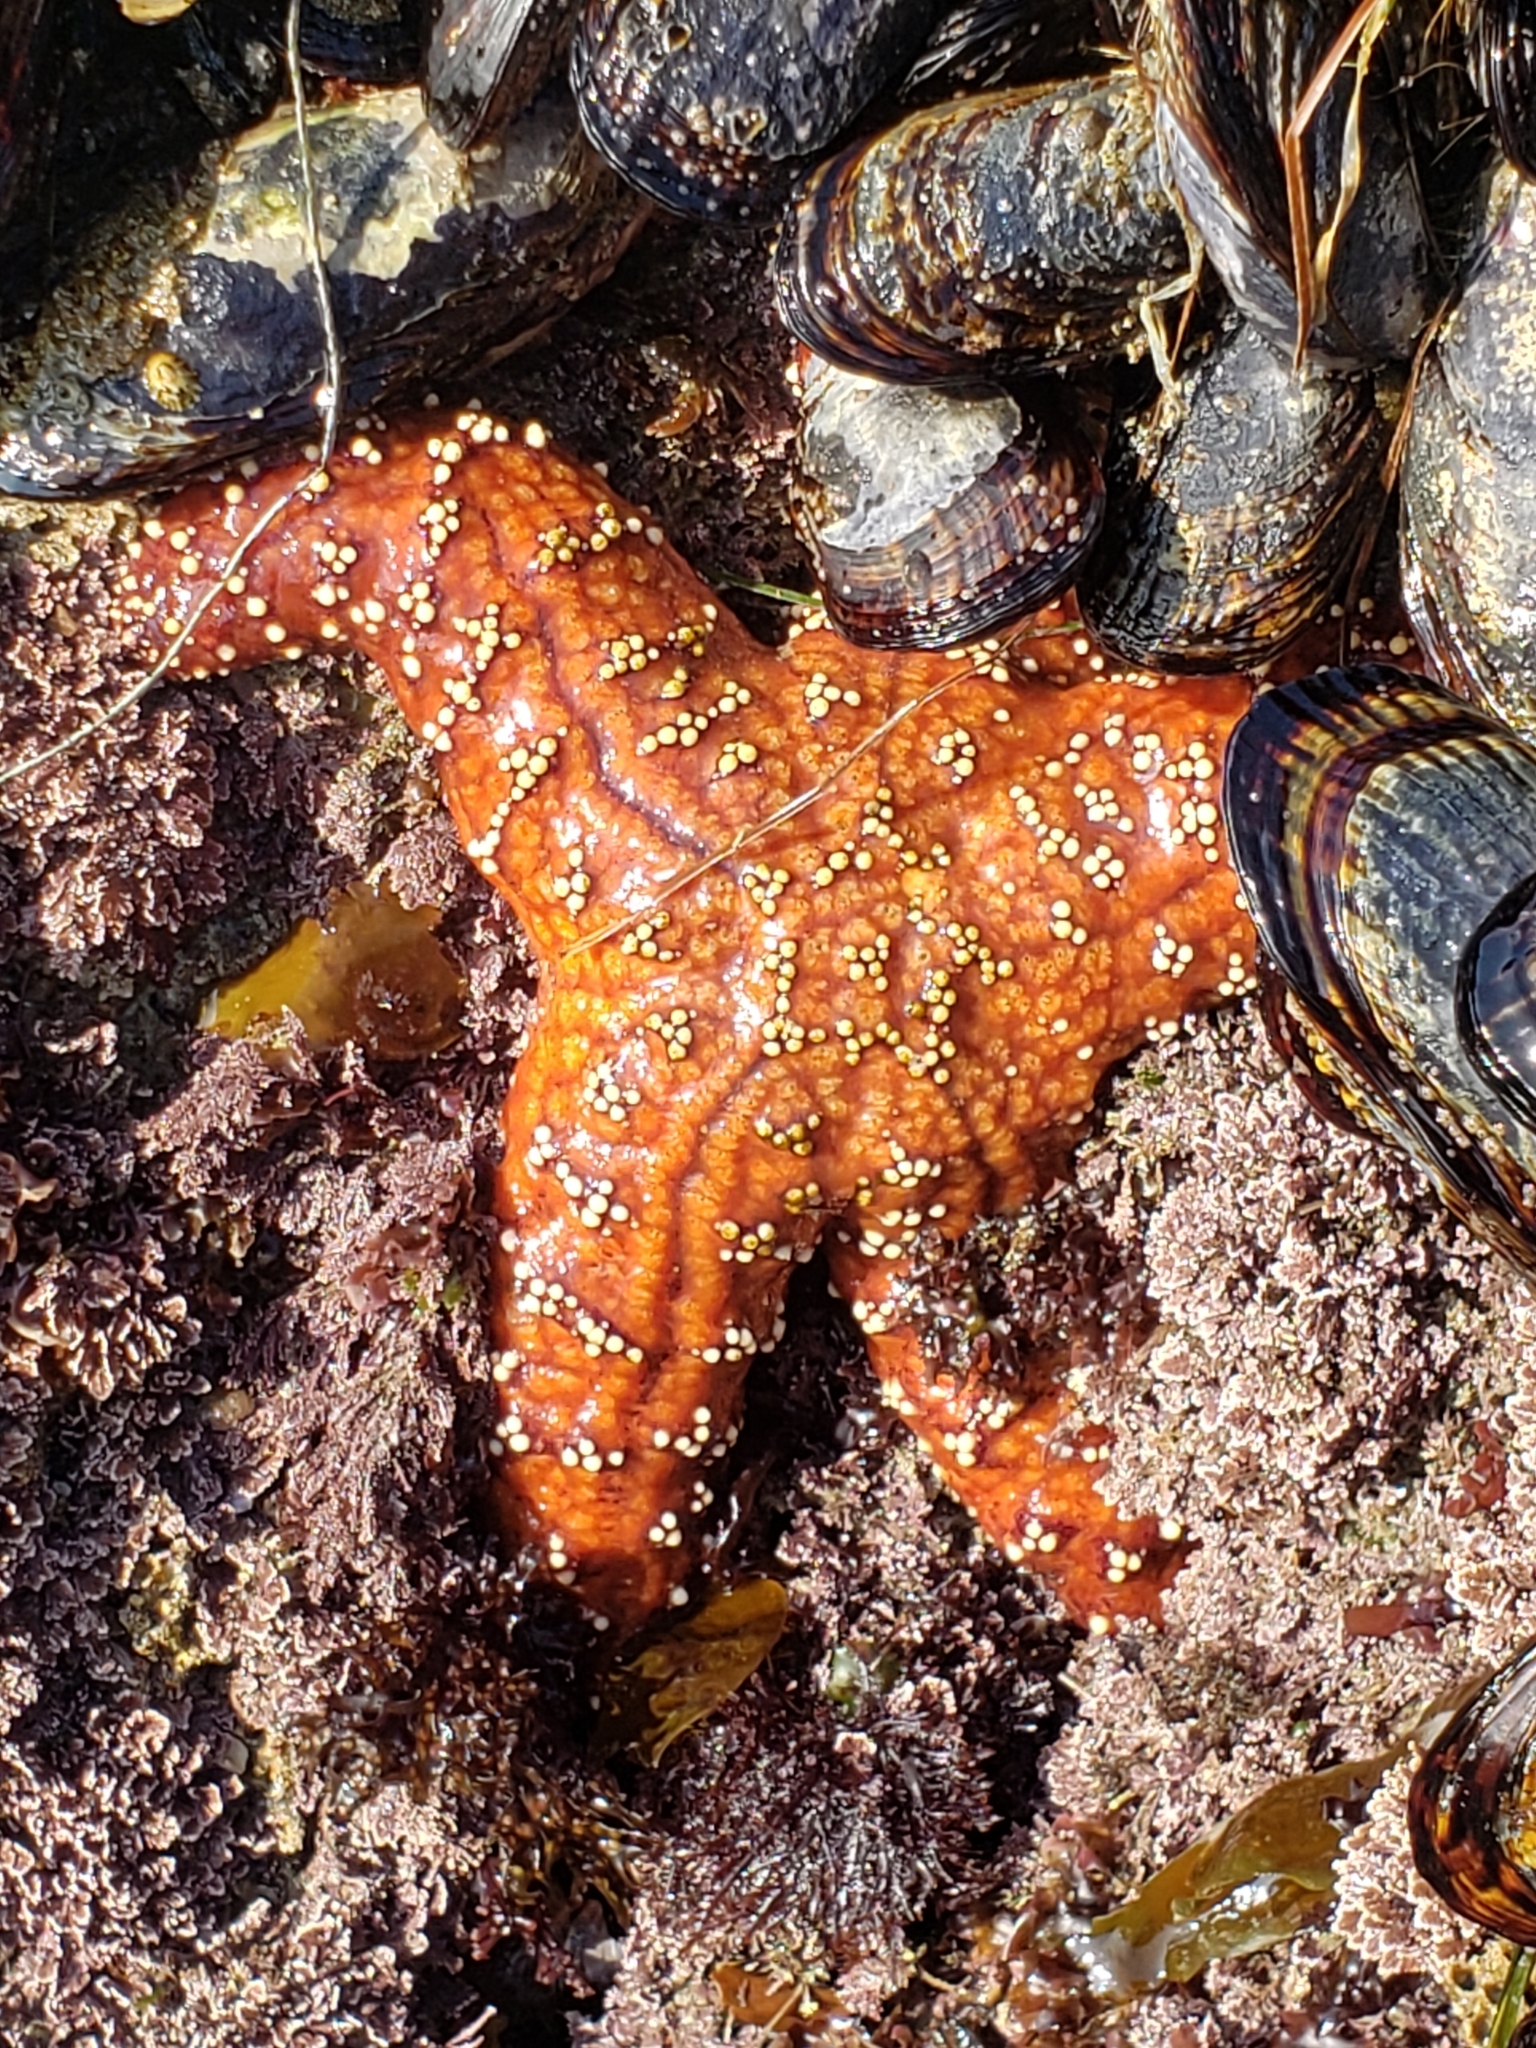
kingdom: Animalia
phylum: Echinodermata
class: Asteroidea
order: Forcipulatida
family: Asteriidae
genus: Pisaster
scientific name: Pisaster ochraceus
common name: Ochre stars
